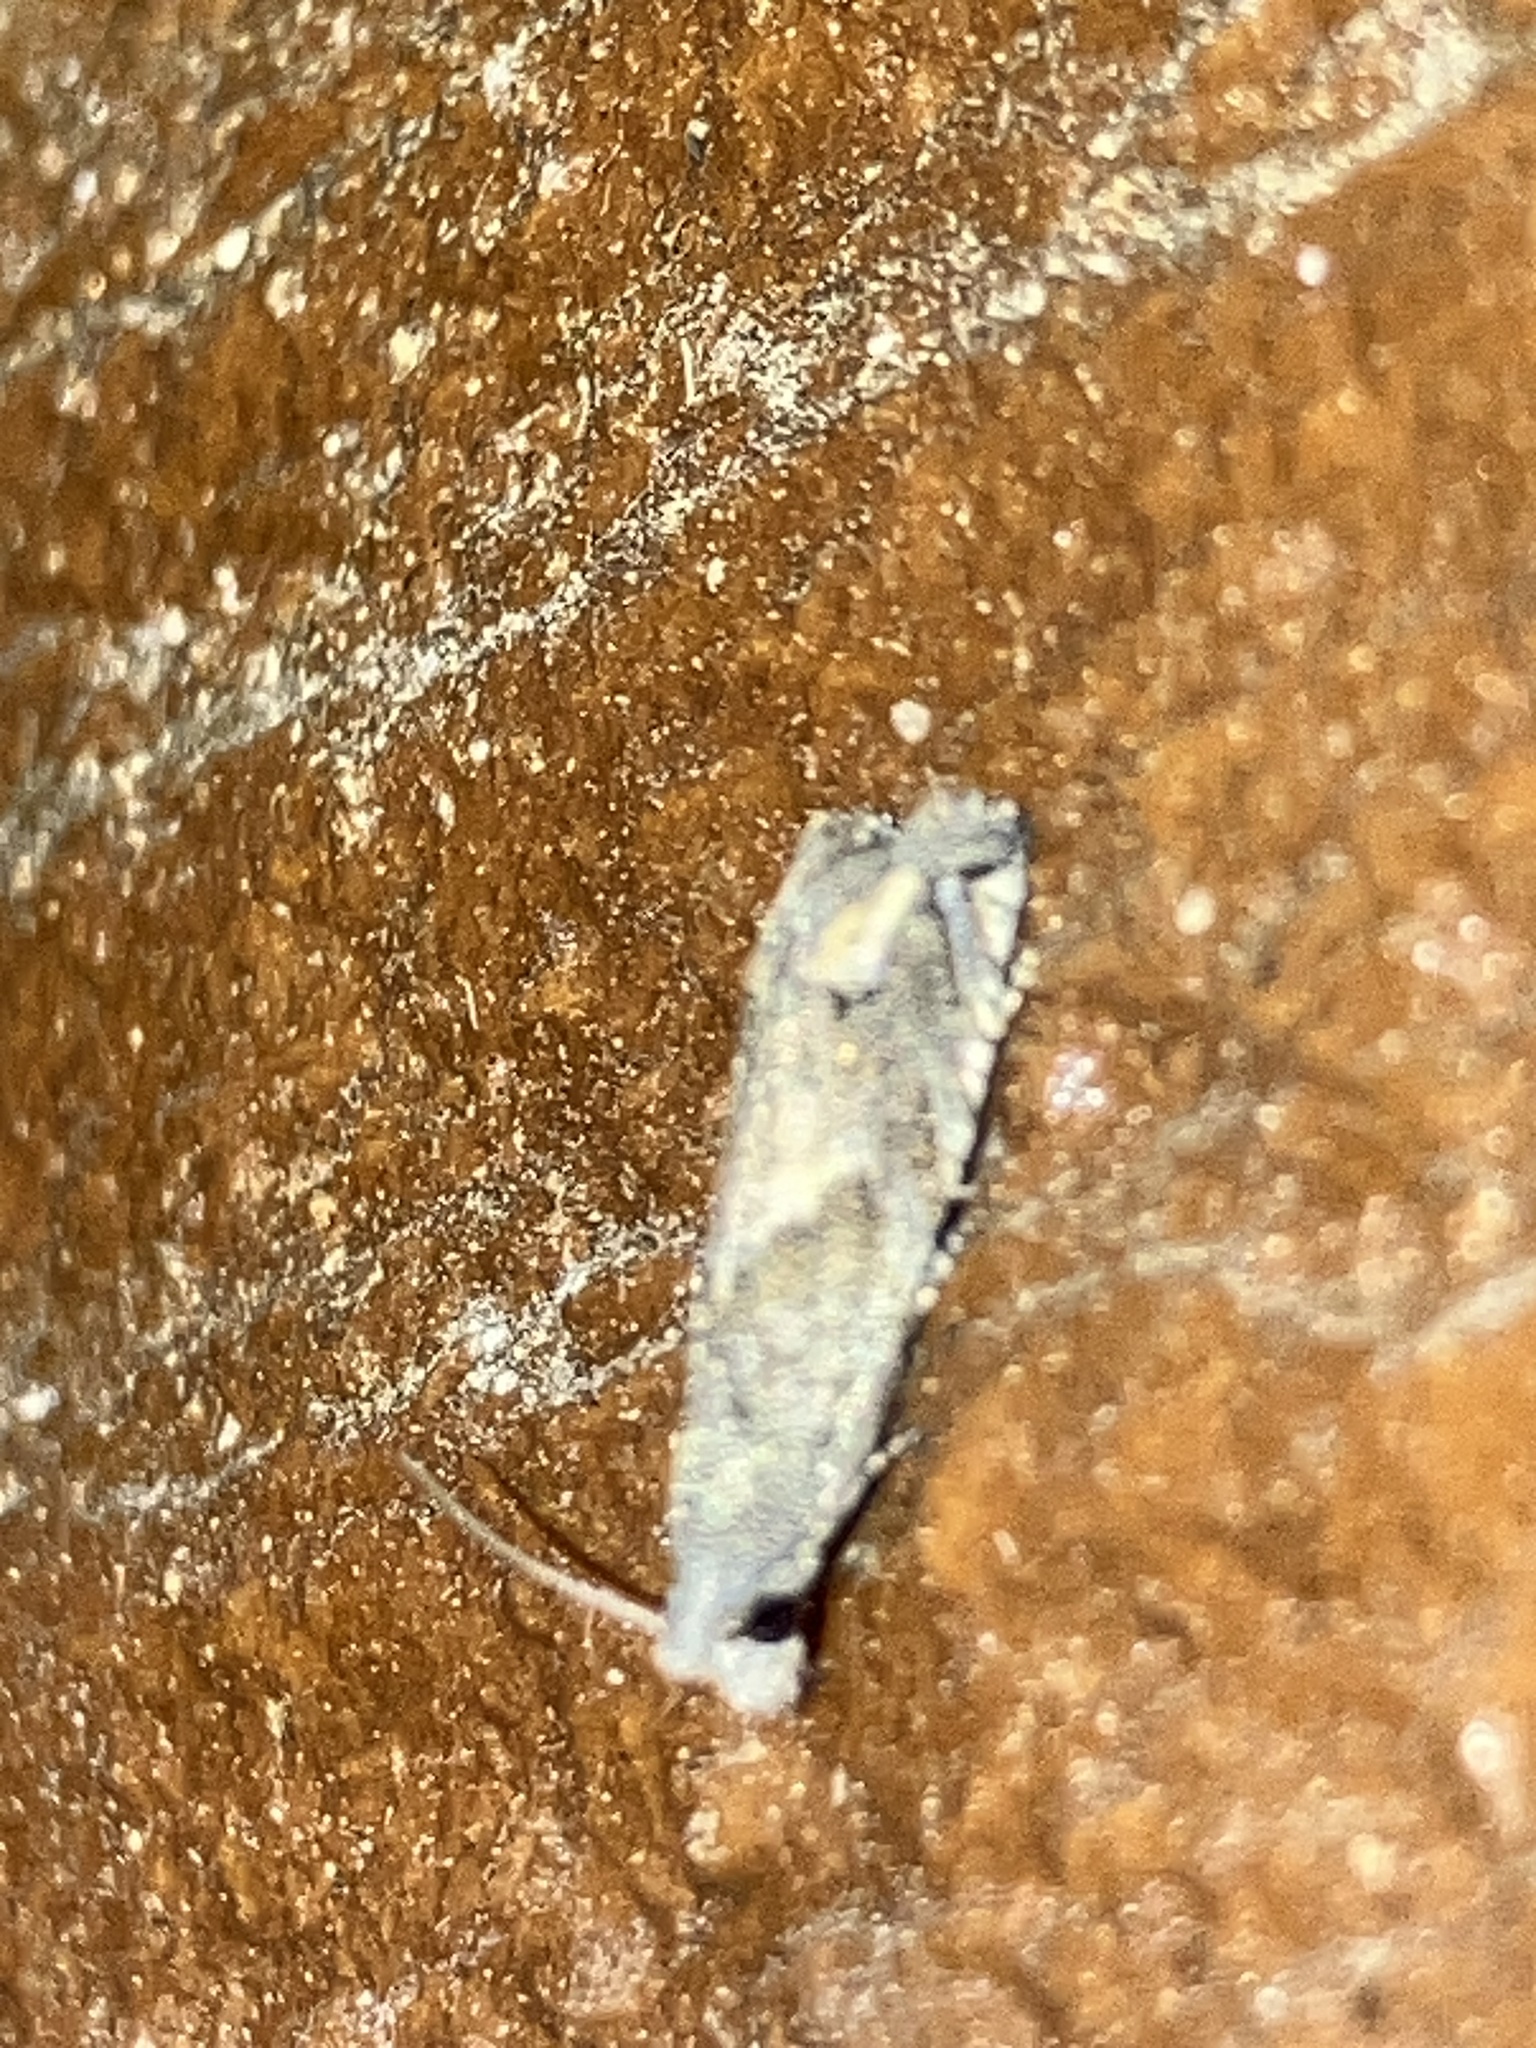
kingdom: Animalia
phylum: Arthropoda
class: Insecta
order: Lepidoptera
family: Tortricidae
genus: Epiblema
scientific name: Epiblema strenuana
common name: Ragweed borer moth
